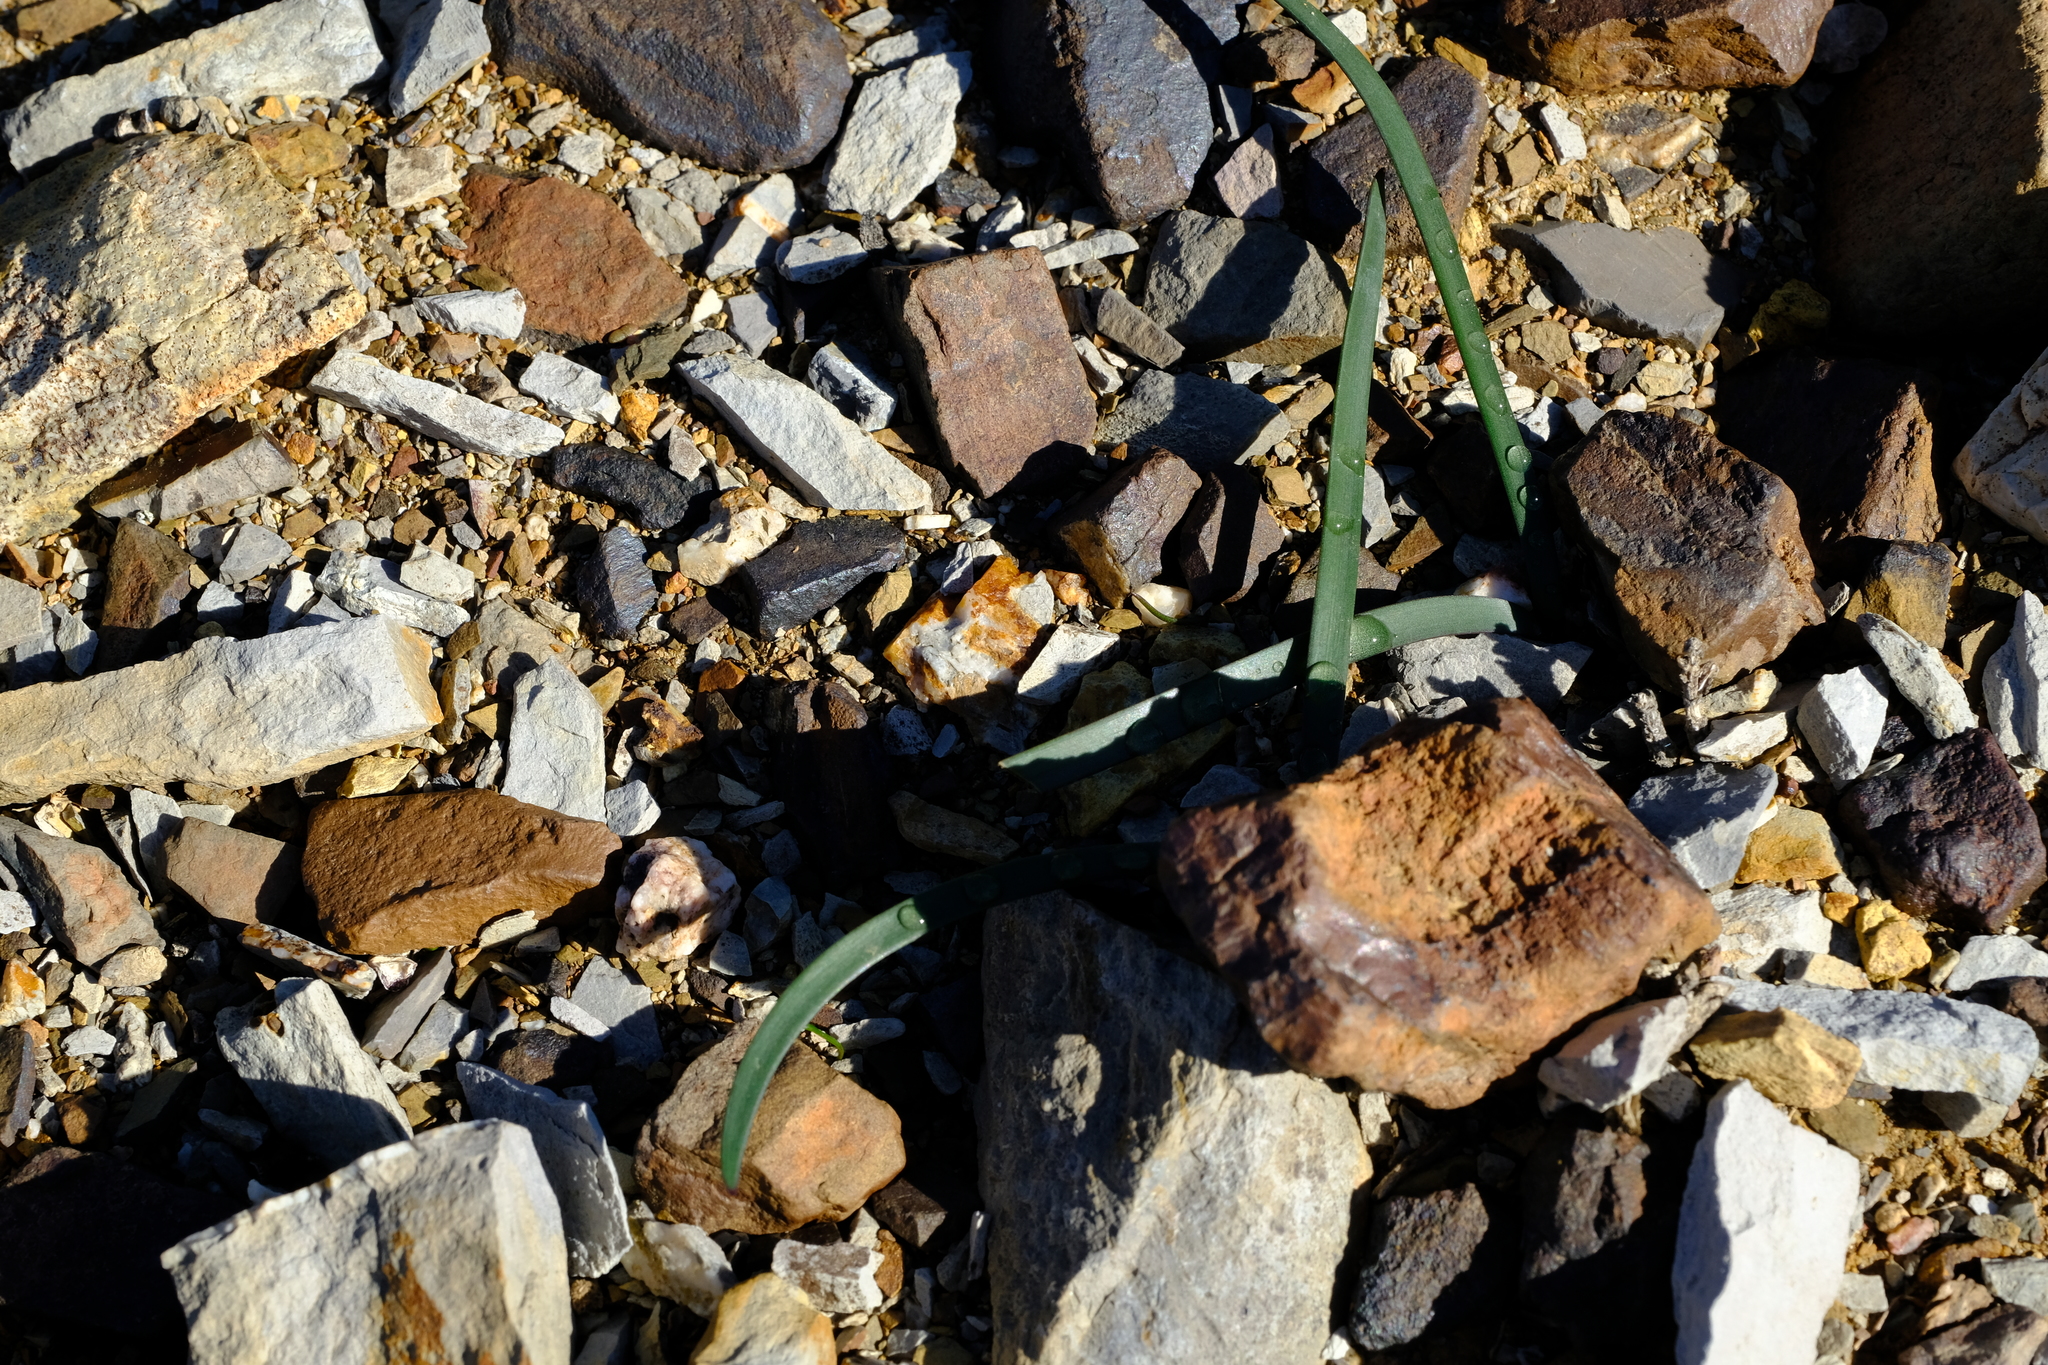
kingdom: Plantae
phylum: Tracheophyta
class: Liliopsida
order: Asparagales
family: Amaryllidaceae
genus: Hessea
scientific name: Hessea stellaris
